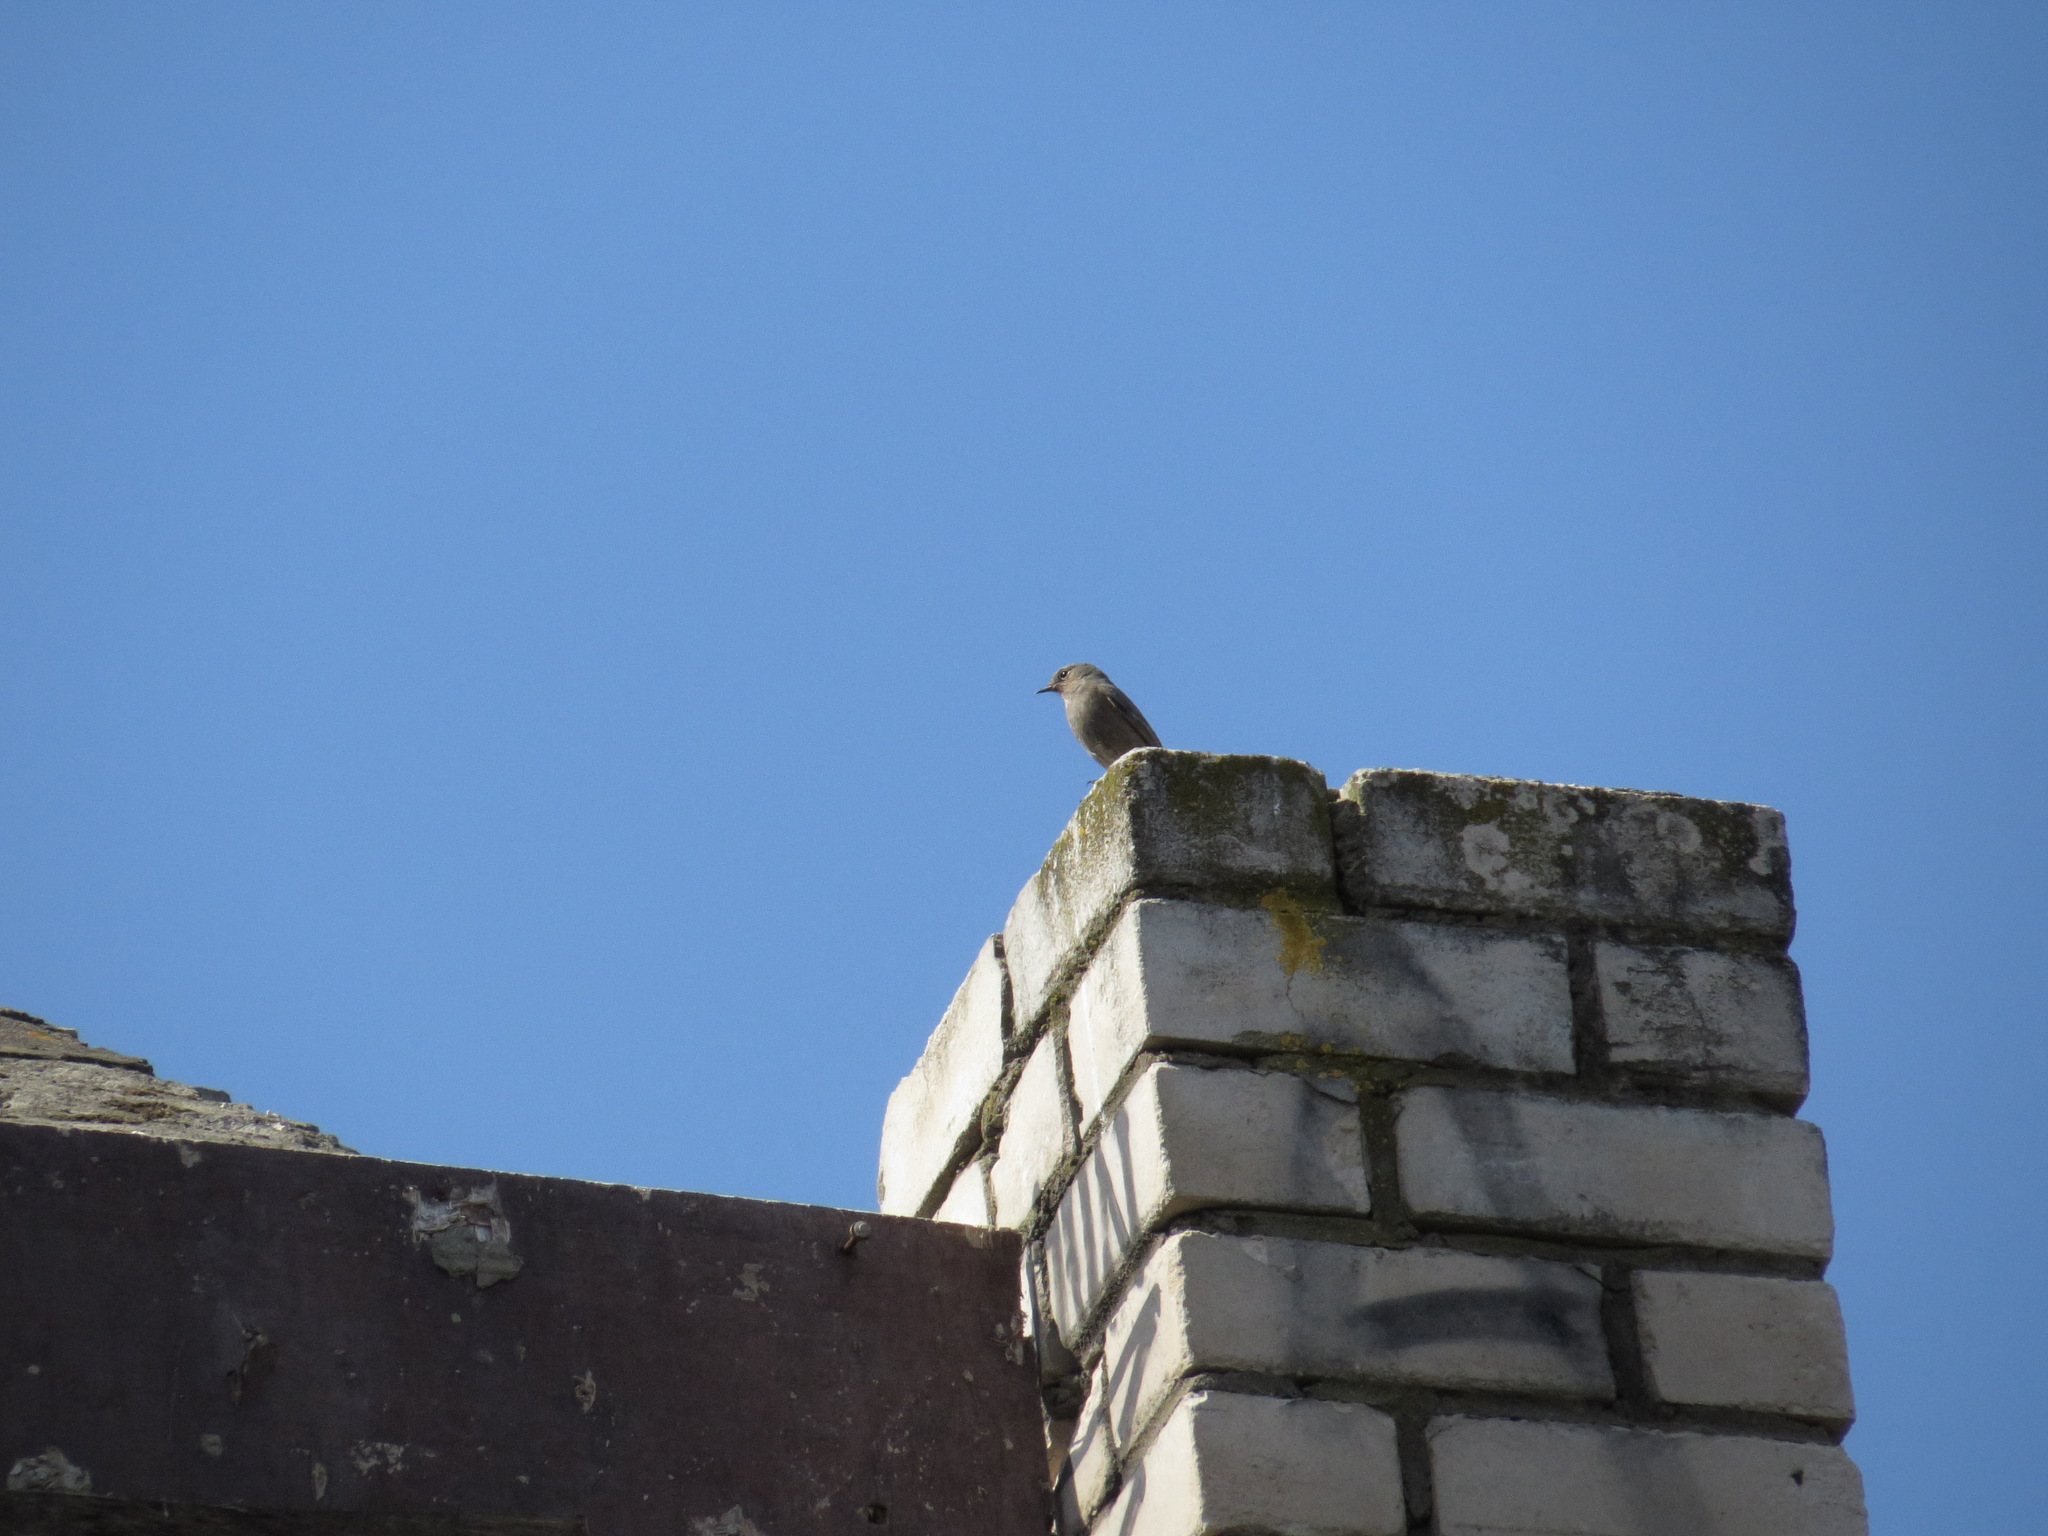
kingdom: Animalia
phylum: Chordata
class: Aves
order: Passeriformes
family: Muscicapidae
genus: Phoenicurus
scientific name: Phoenicurus ochruros
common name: Black redstart
